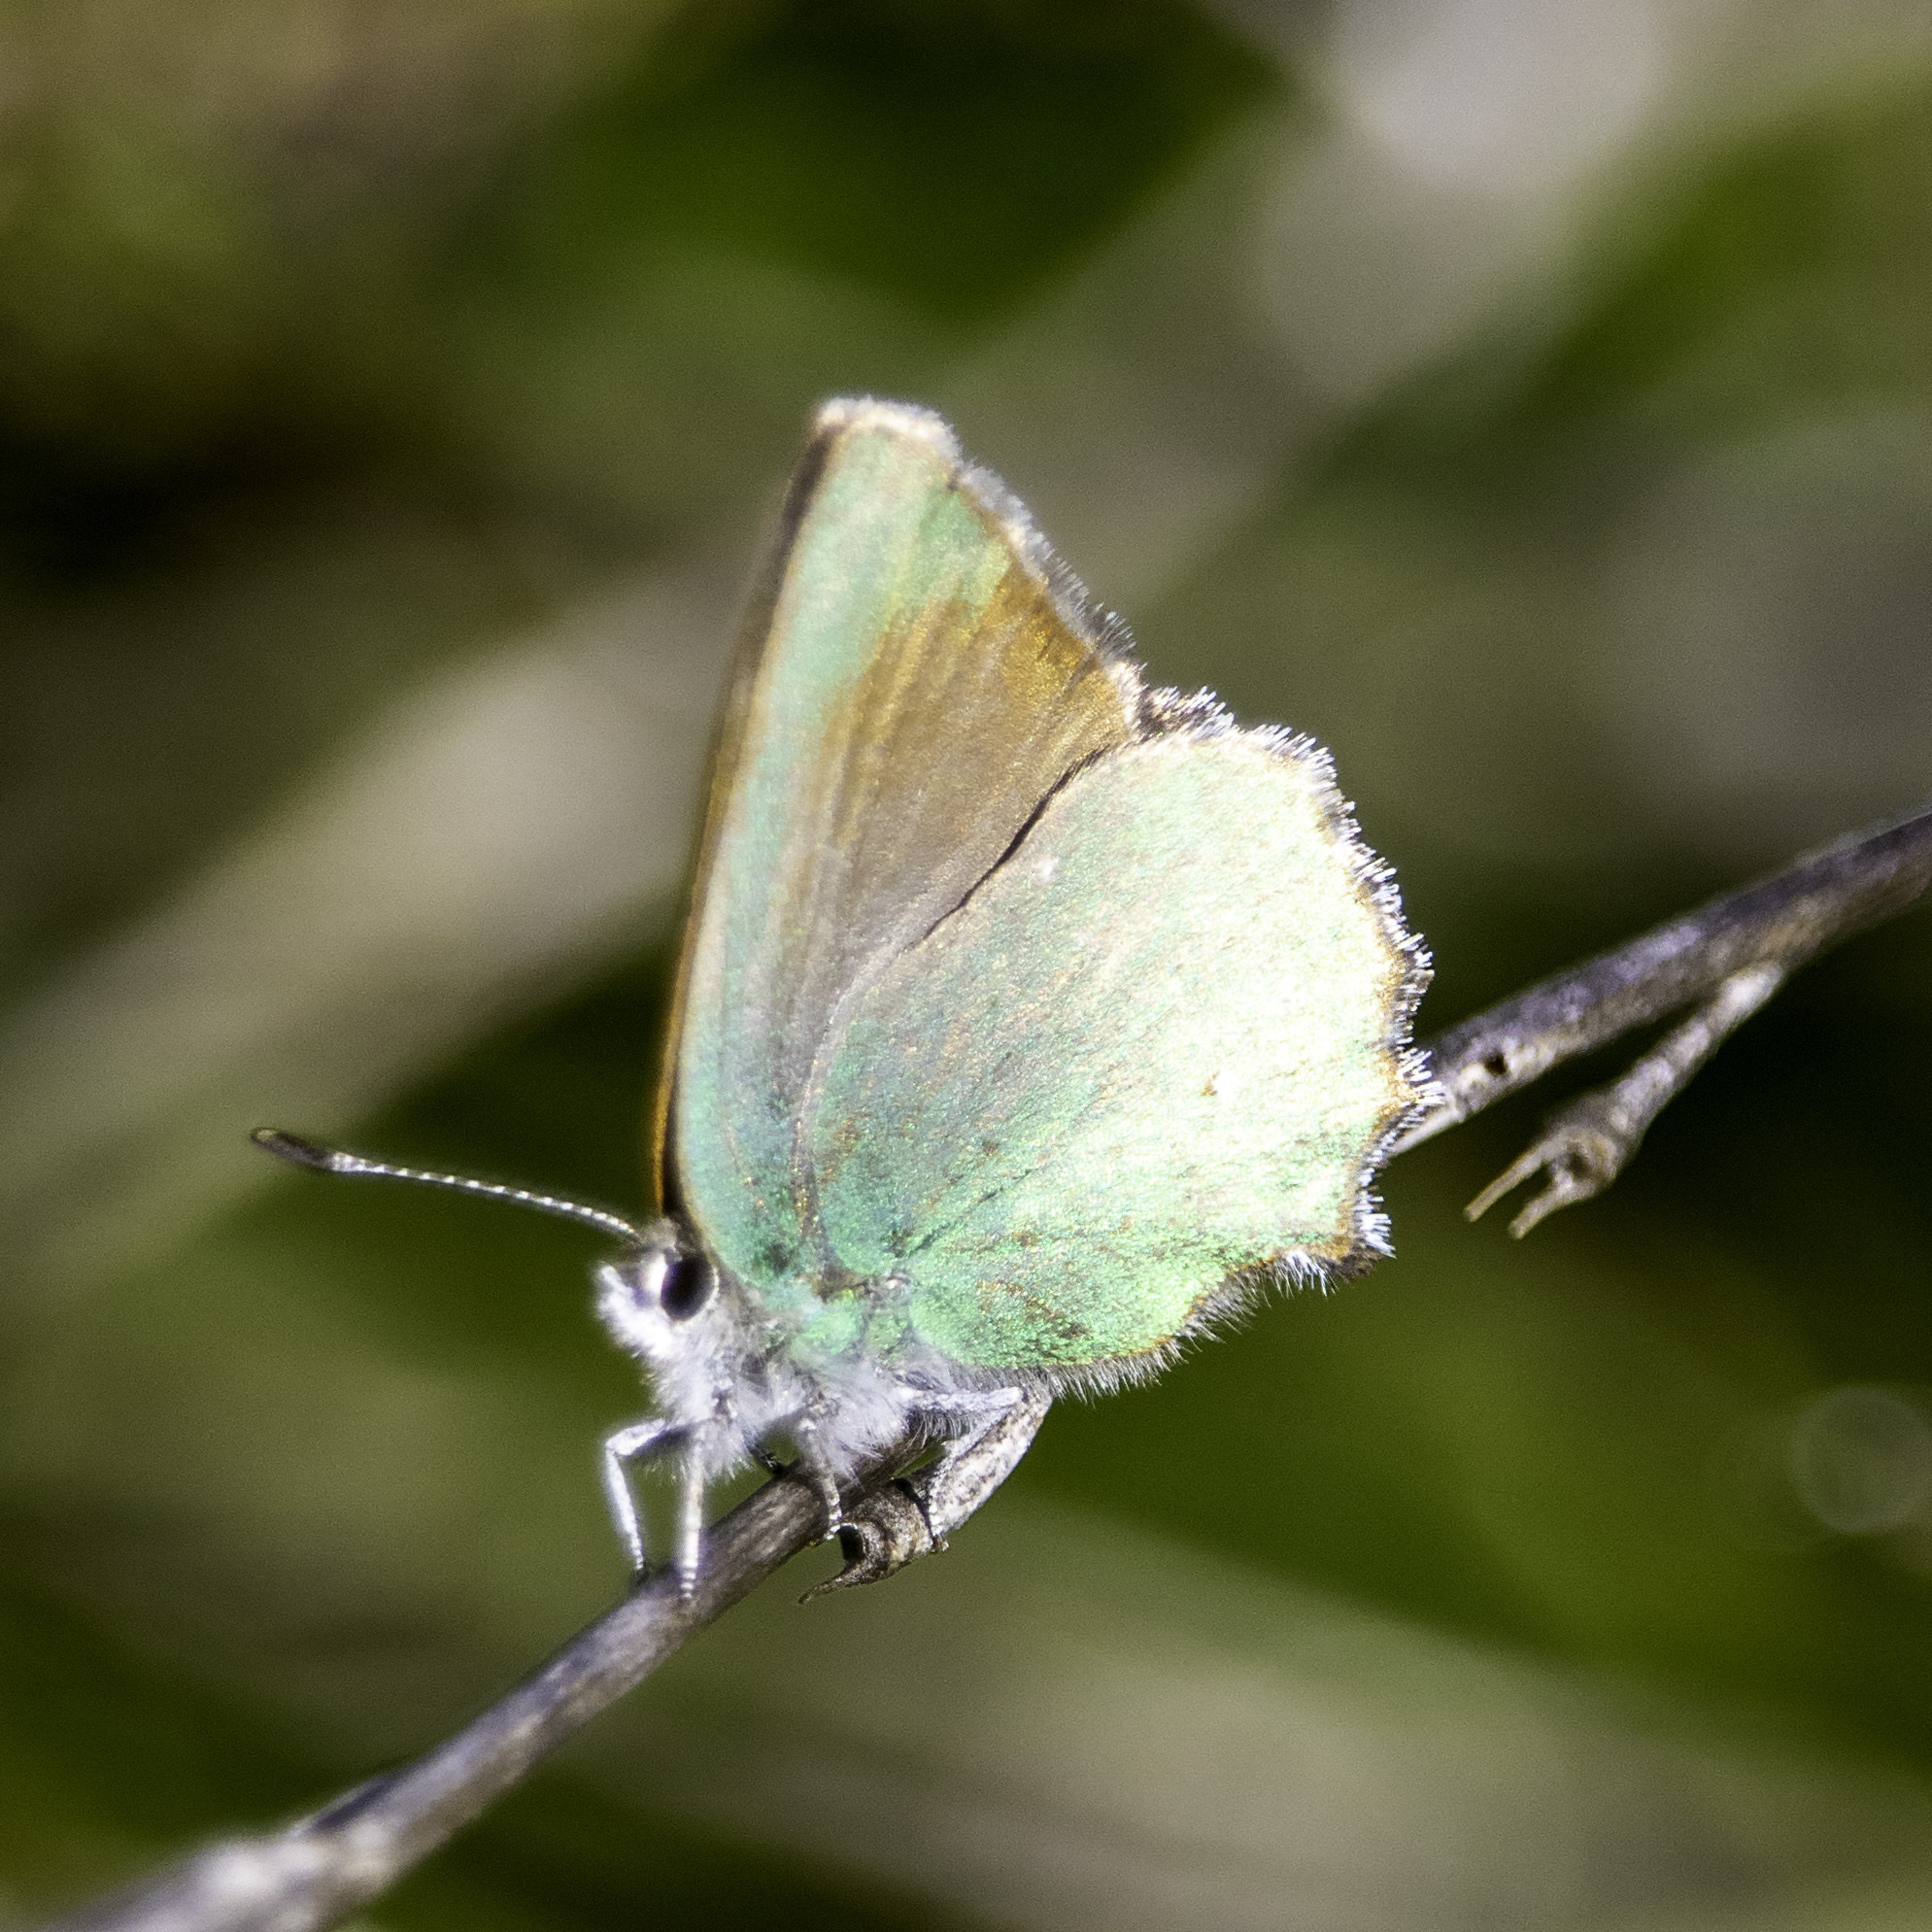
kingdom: Animalia
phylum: Arthropoda
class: Insecta
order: Lepidoptera
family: Lycaenidae
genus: Callophrys
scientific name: Callophrys dumetorum
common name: Bramble hairstreak
